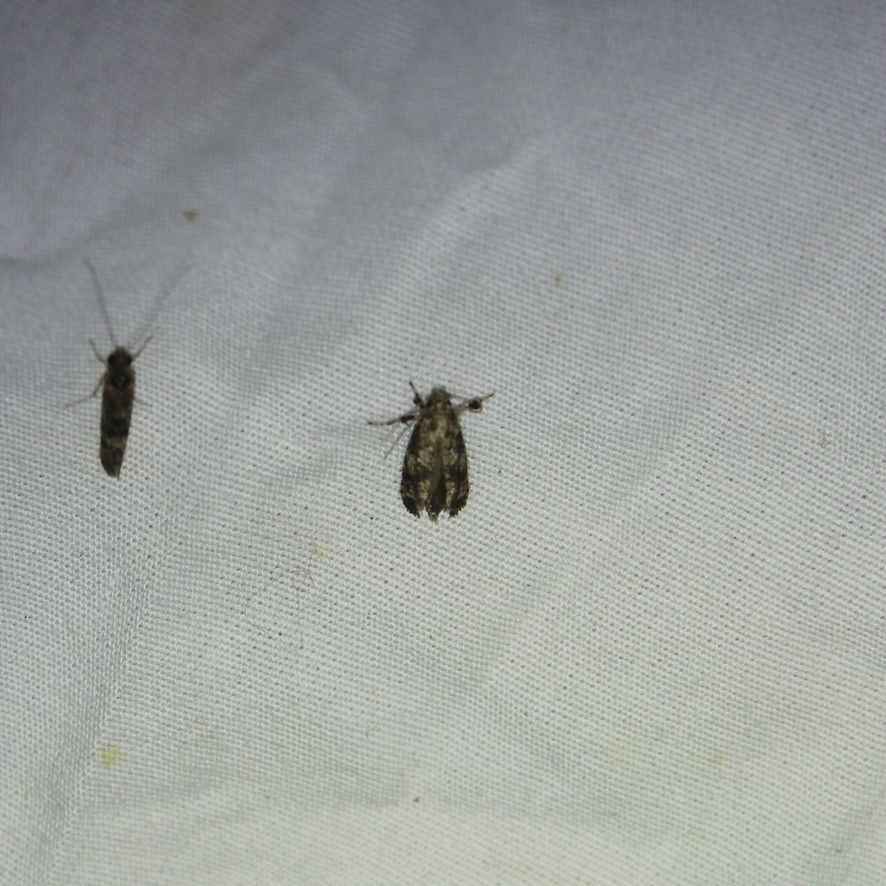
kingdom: Animalia
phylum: Arthropoda
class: Insecta
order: Lepidoptera
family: Tineidae
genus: Acrolophus
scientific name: Acrolophus cressoni
